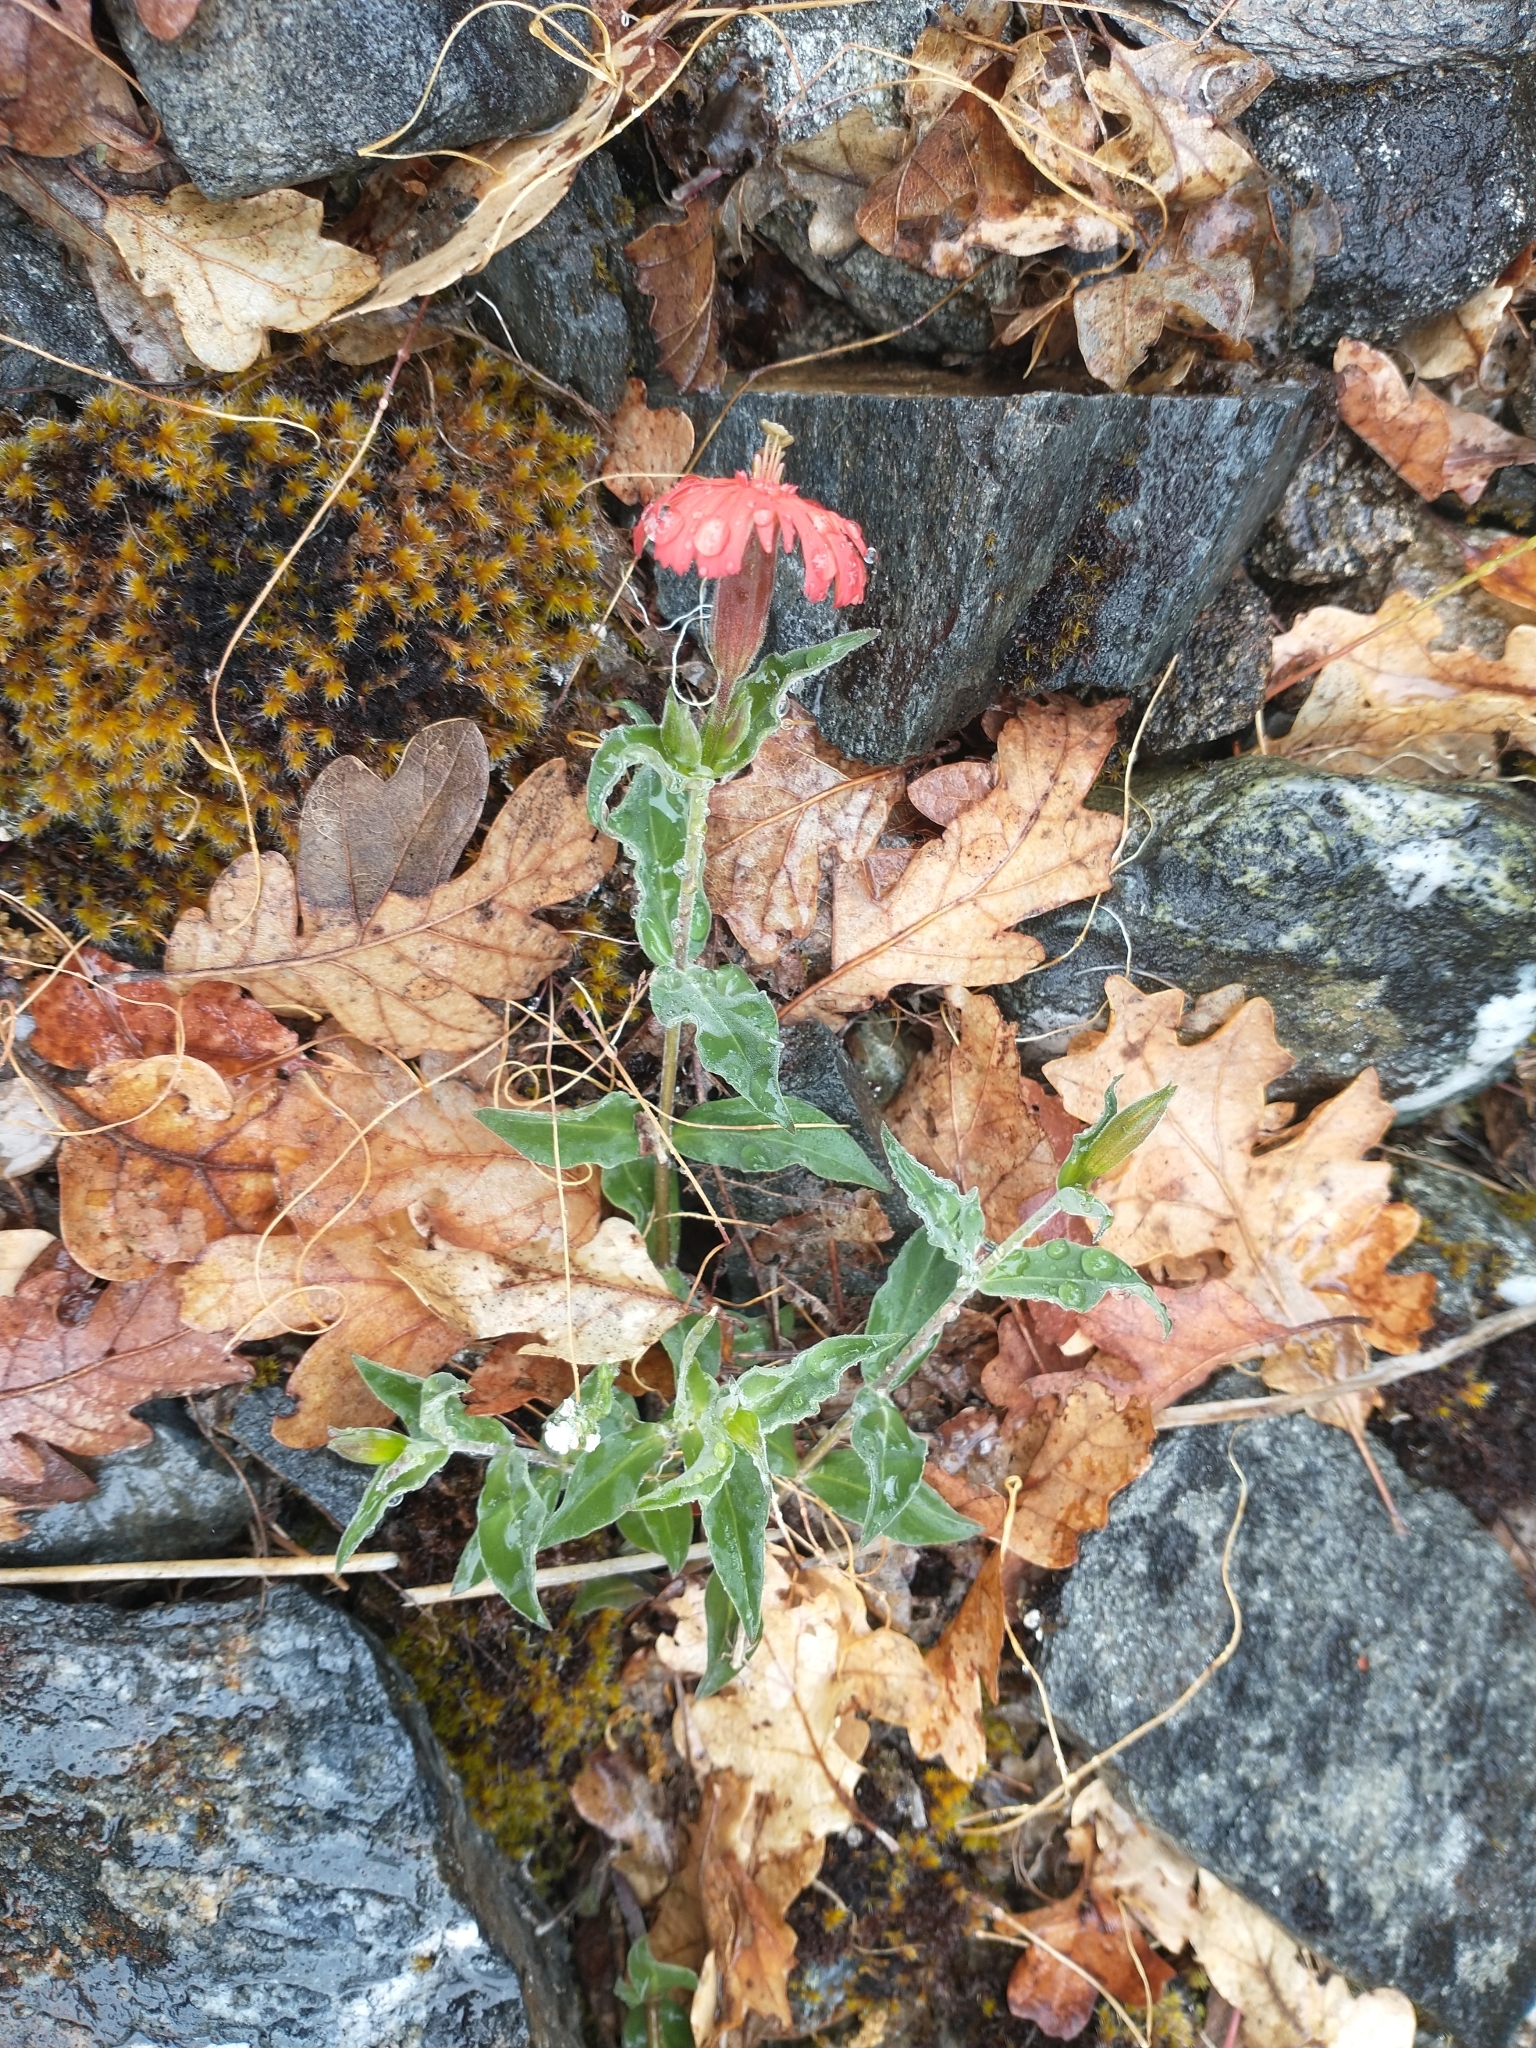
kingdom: Plantae
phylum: Tracheophyta
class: Magnoliopsida
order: Caryophyllales
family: Caryophyllaceae
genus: Silene
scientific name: Silene laciniata
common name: Indian-pink
